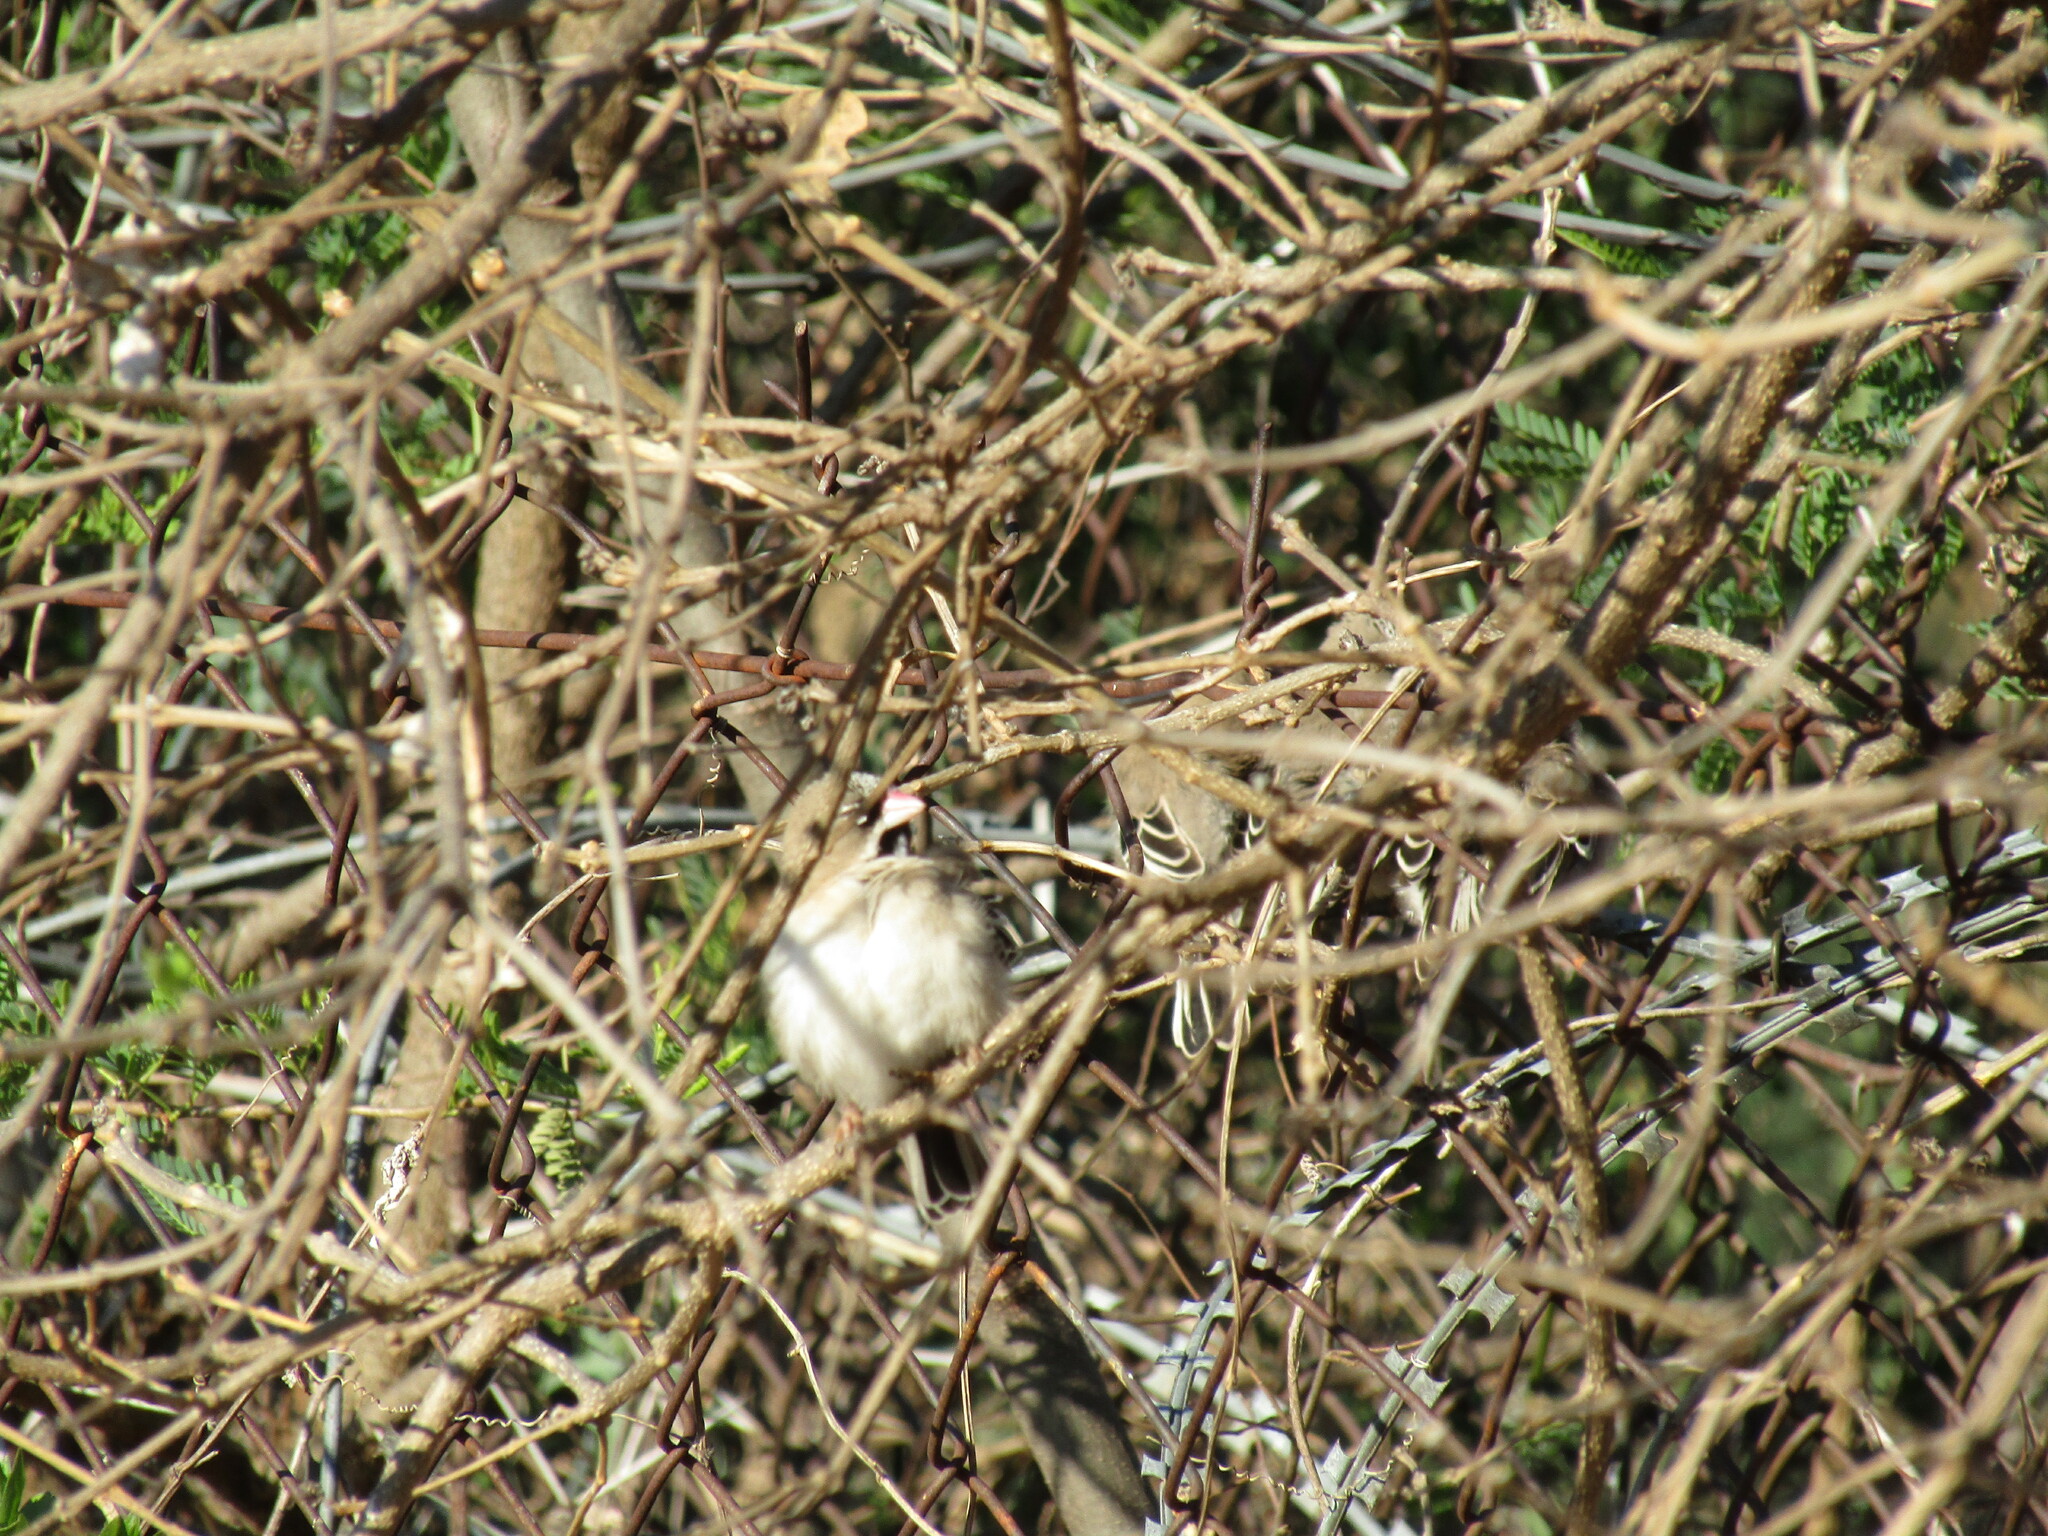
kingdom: Animalia
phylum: Chordata
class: Aves
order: Passeriformes
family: Ploceidae
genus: Sporopipes
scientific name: Sporopipes squamifrons
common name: Scaly-feathered weaver
